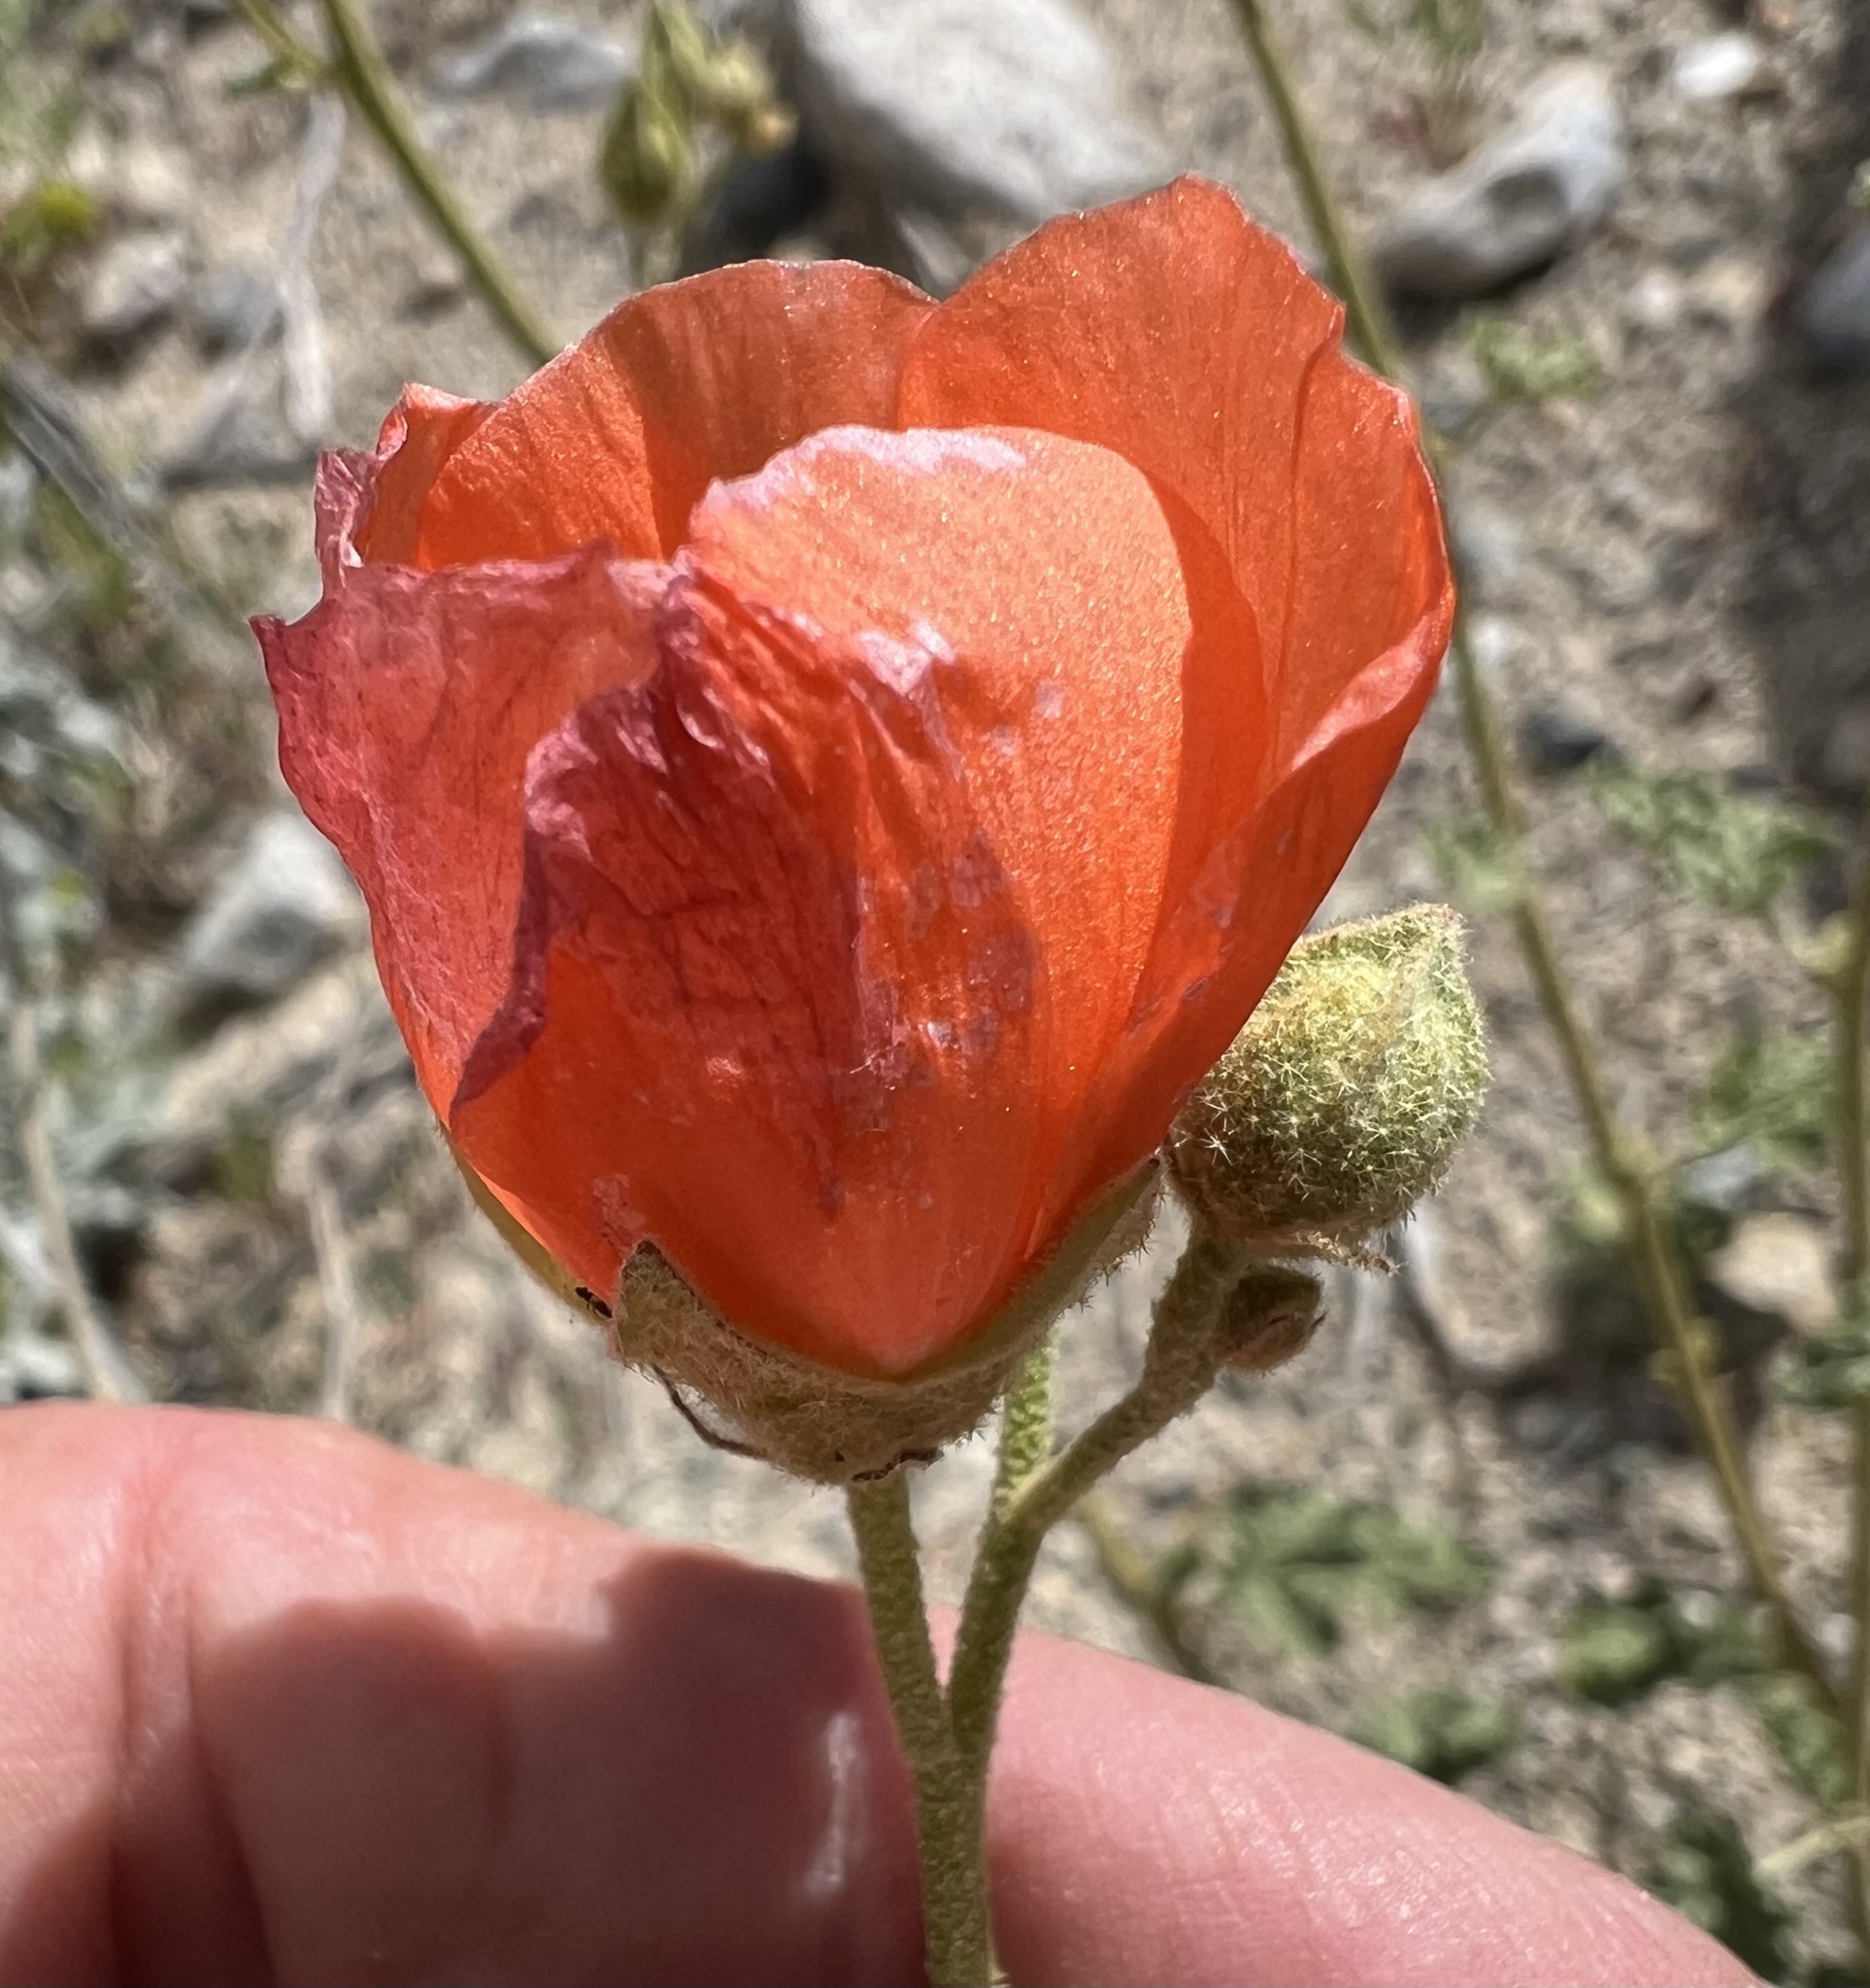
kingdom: Plantae
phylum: Tracheophyta
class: Magnoliopsida
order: Malvales
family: Malvaceae
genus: Sphaeralcea
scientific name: Sphaeralcea ambigua
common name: Apricot globe-mallow
